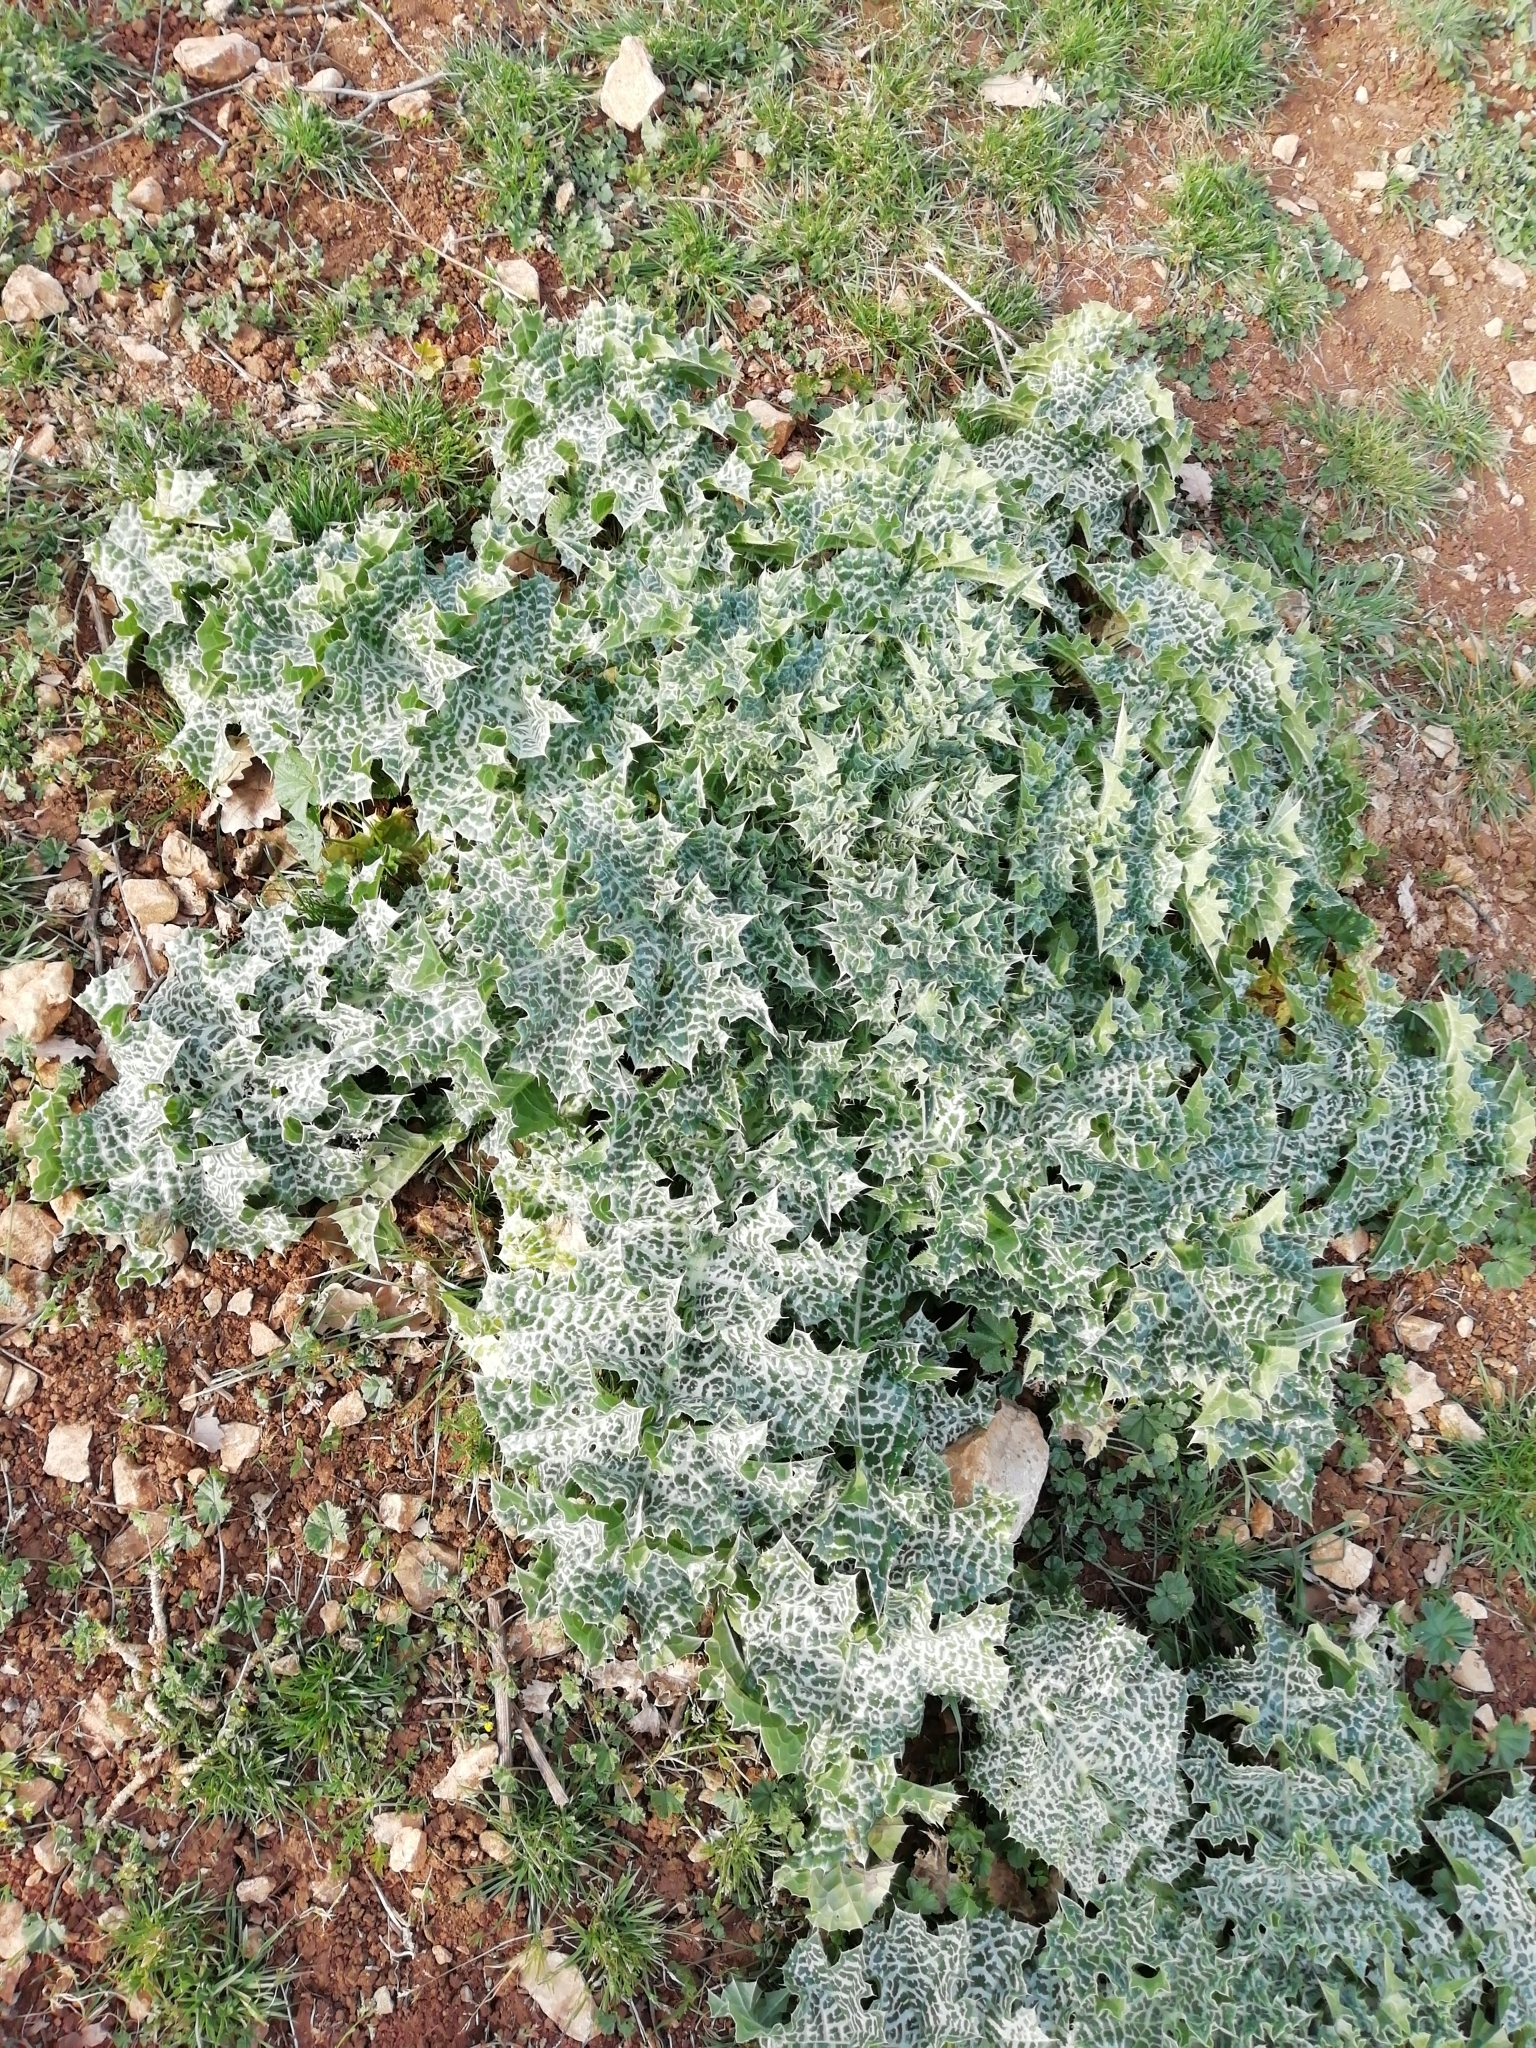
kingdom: Plantae
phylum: Tracheophyta
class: Magnoliopsida
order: Asterales
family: Asteraceae
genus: Silybum
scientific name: Silybum marianum
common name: Milk thistle
